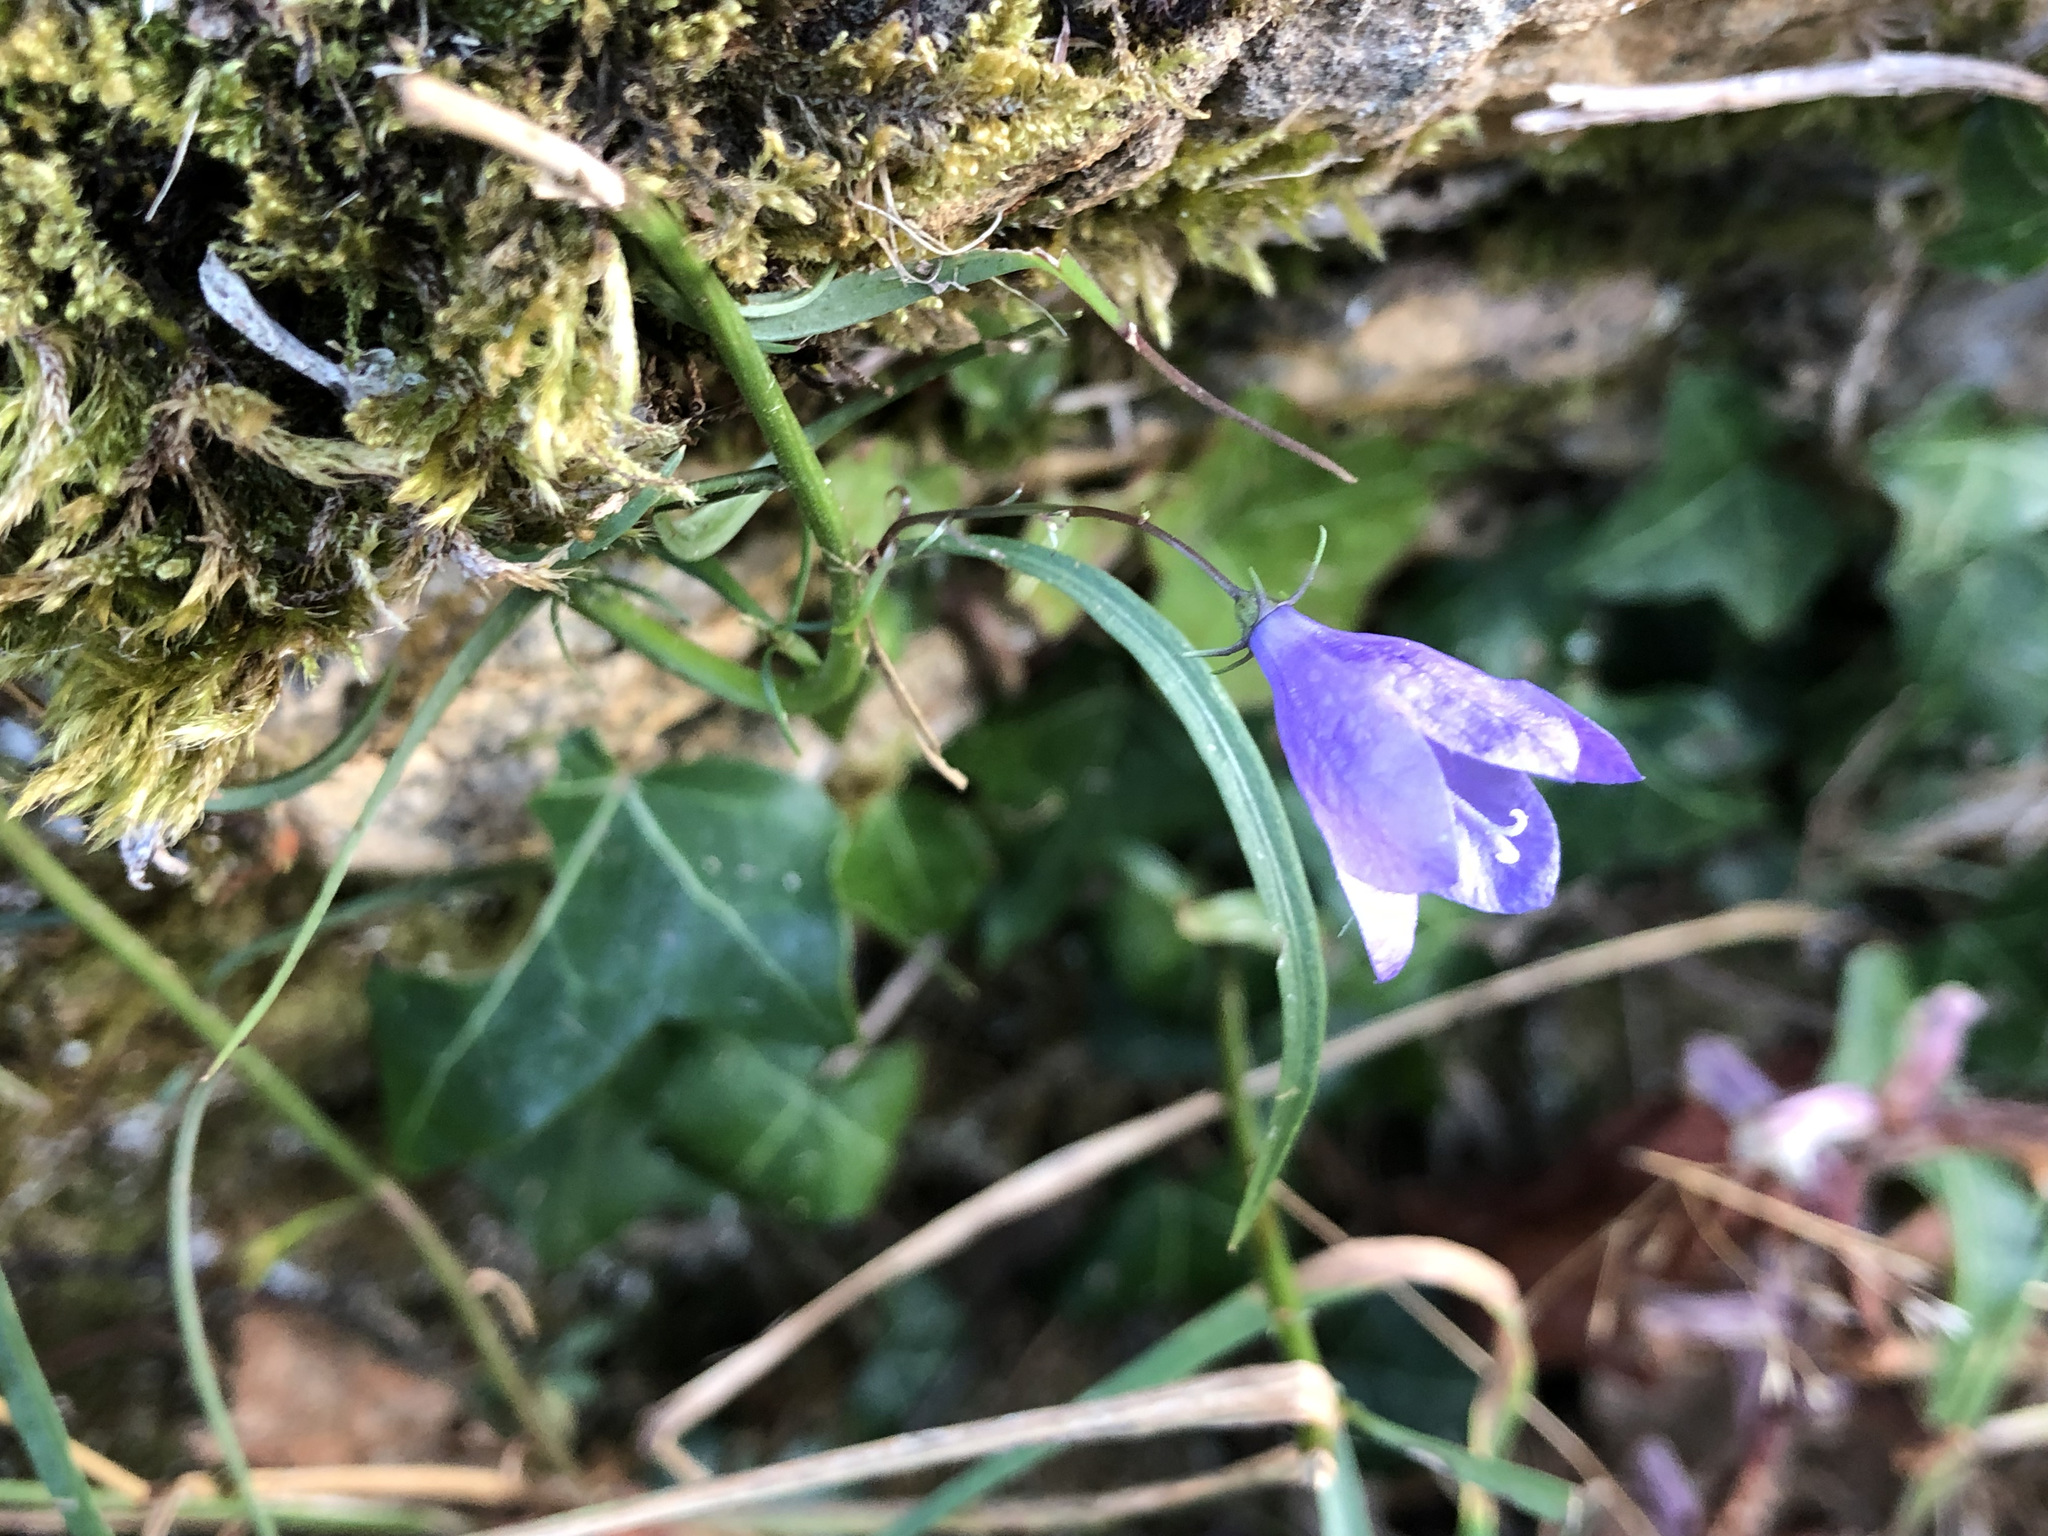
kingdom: Plantae
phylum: Tracheophyta
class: Magnoliopsida
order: Asterales
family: Campanulaceae
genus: Campanula
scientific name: Campanula rotundifolia
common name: Harebell
